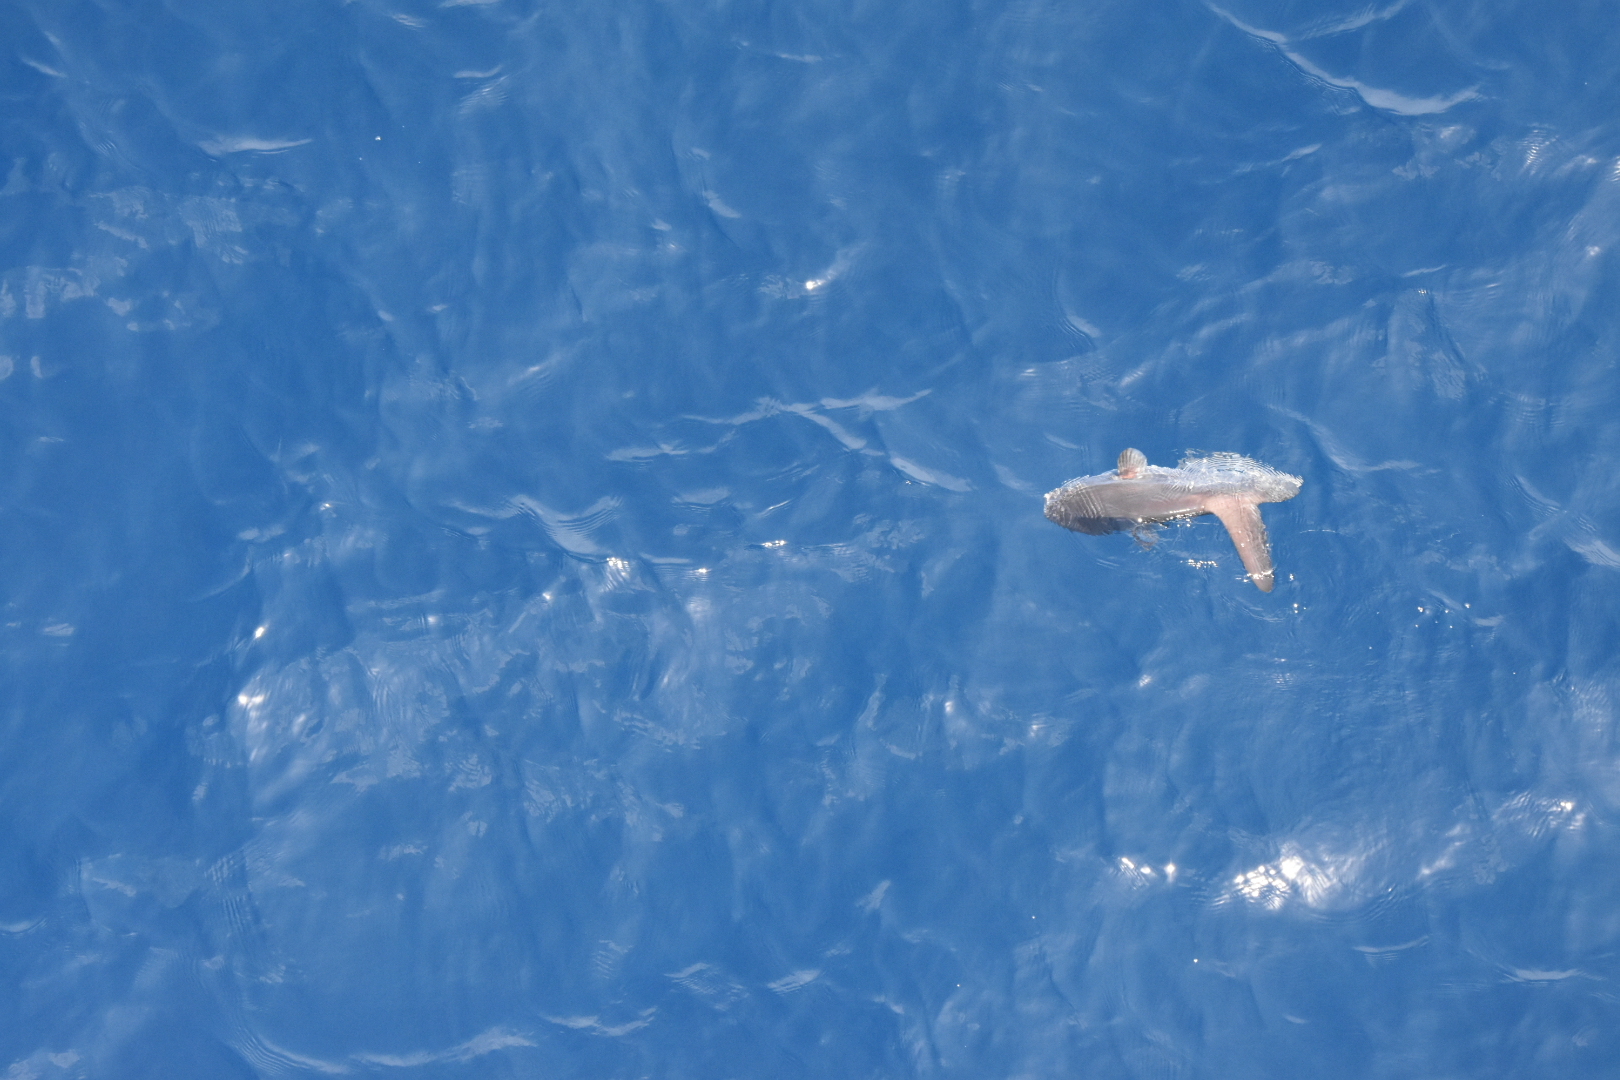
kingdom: Animalia
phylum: Chordata
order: Tetraodontiformes
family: Molidae
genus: Mola
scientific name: Mola mola
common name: Ocean sunfish
